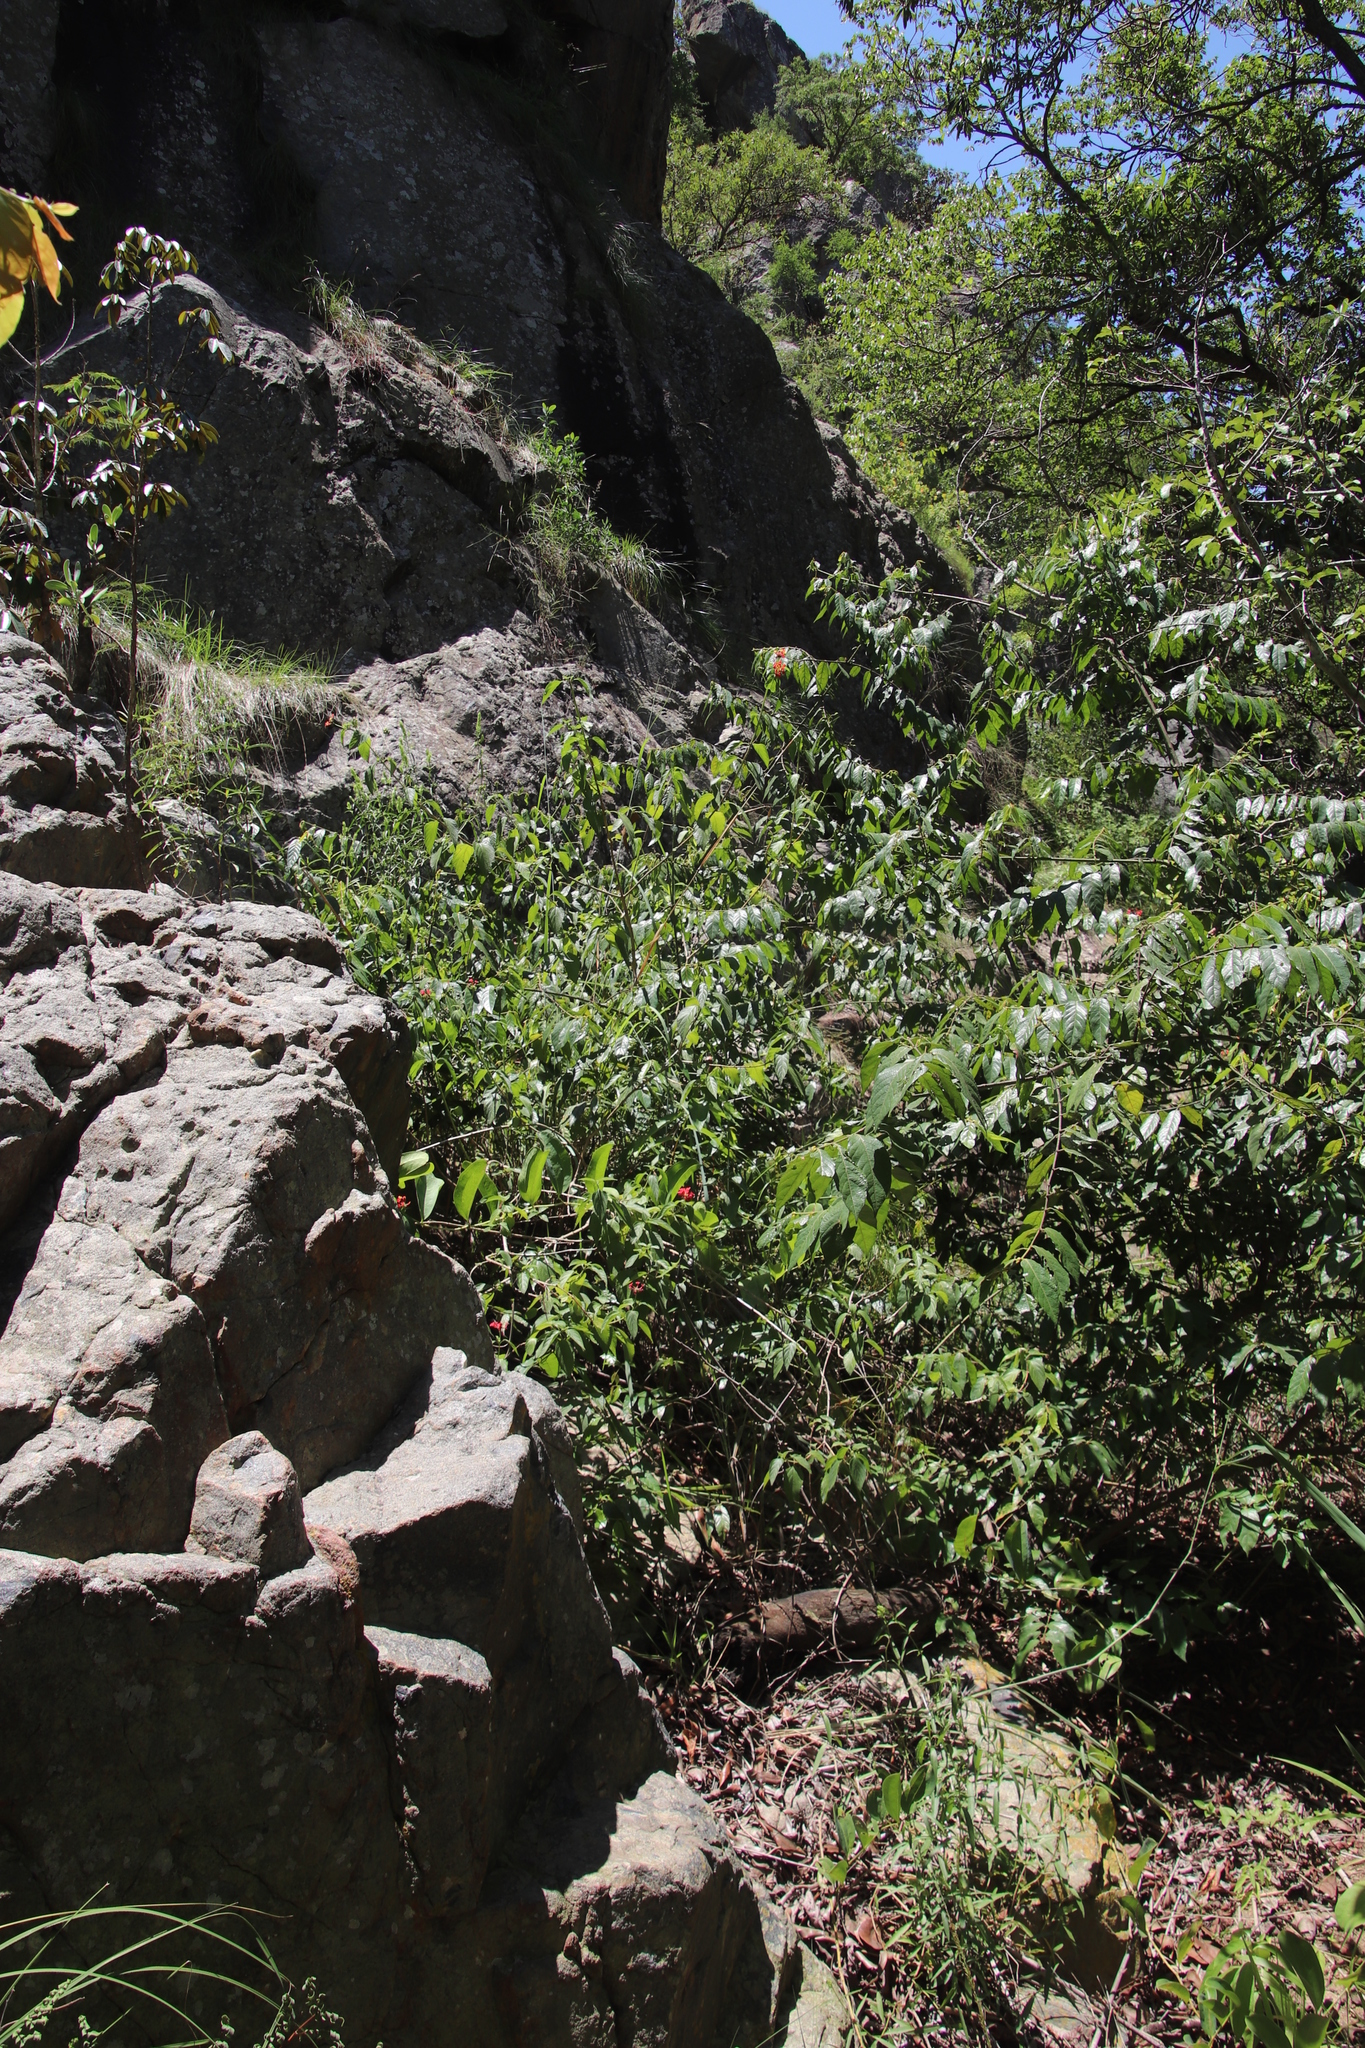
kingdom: Plantae
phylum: Tracheophyta
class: Magnoliopsida
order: Lamiales
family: Verbenaceae
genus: Lantana
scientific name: Lantana camara
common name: Lantana
